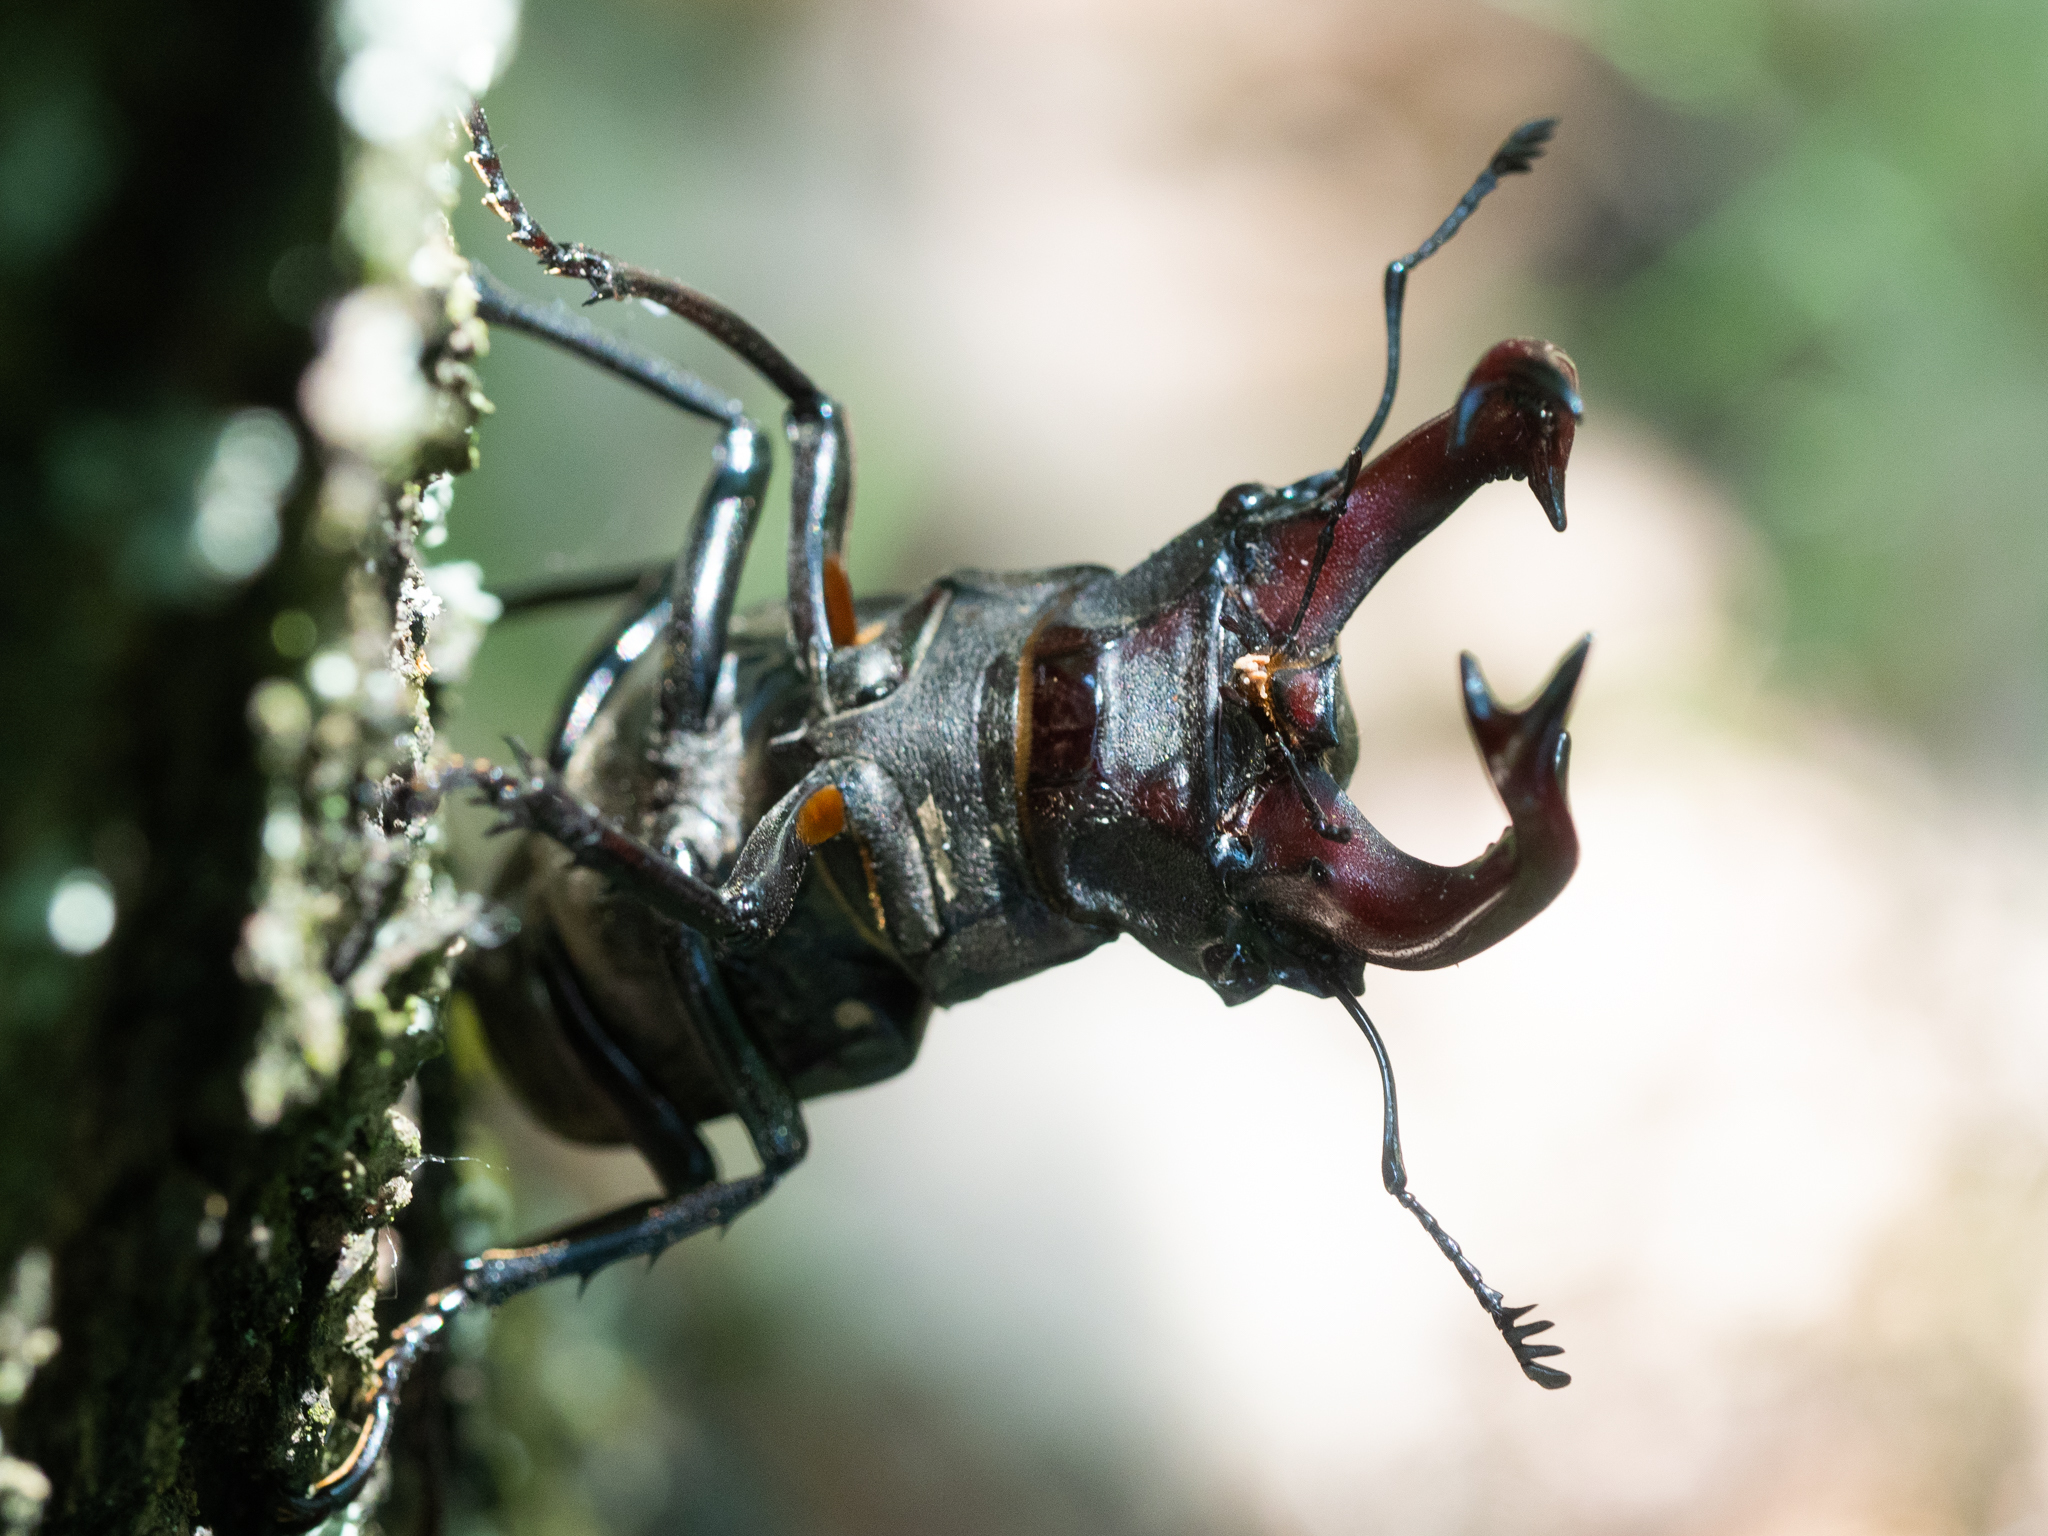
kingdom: Animalia
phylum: Arthropoda
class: Insecta
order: Coleoptera
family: Lucanidae
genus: Lucanus
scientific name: Lucanus cervus
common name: Stag beetle
